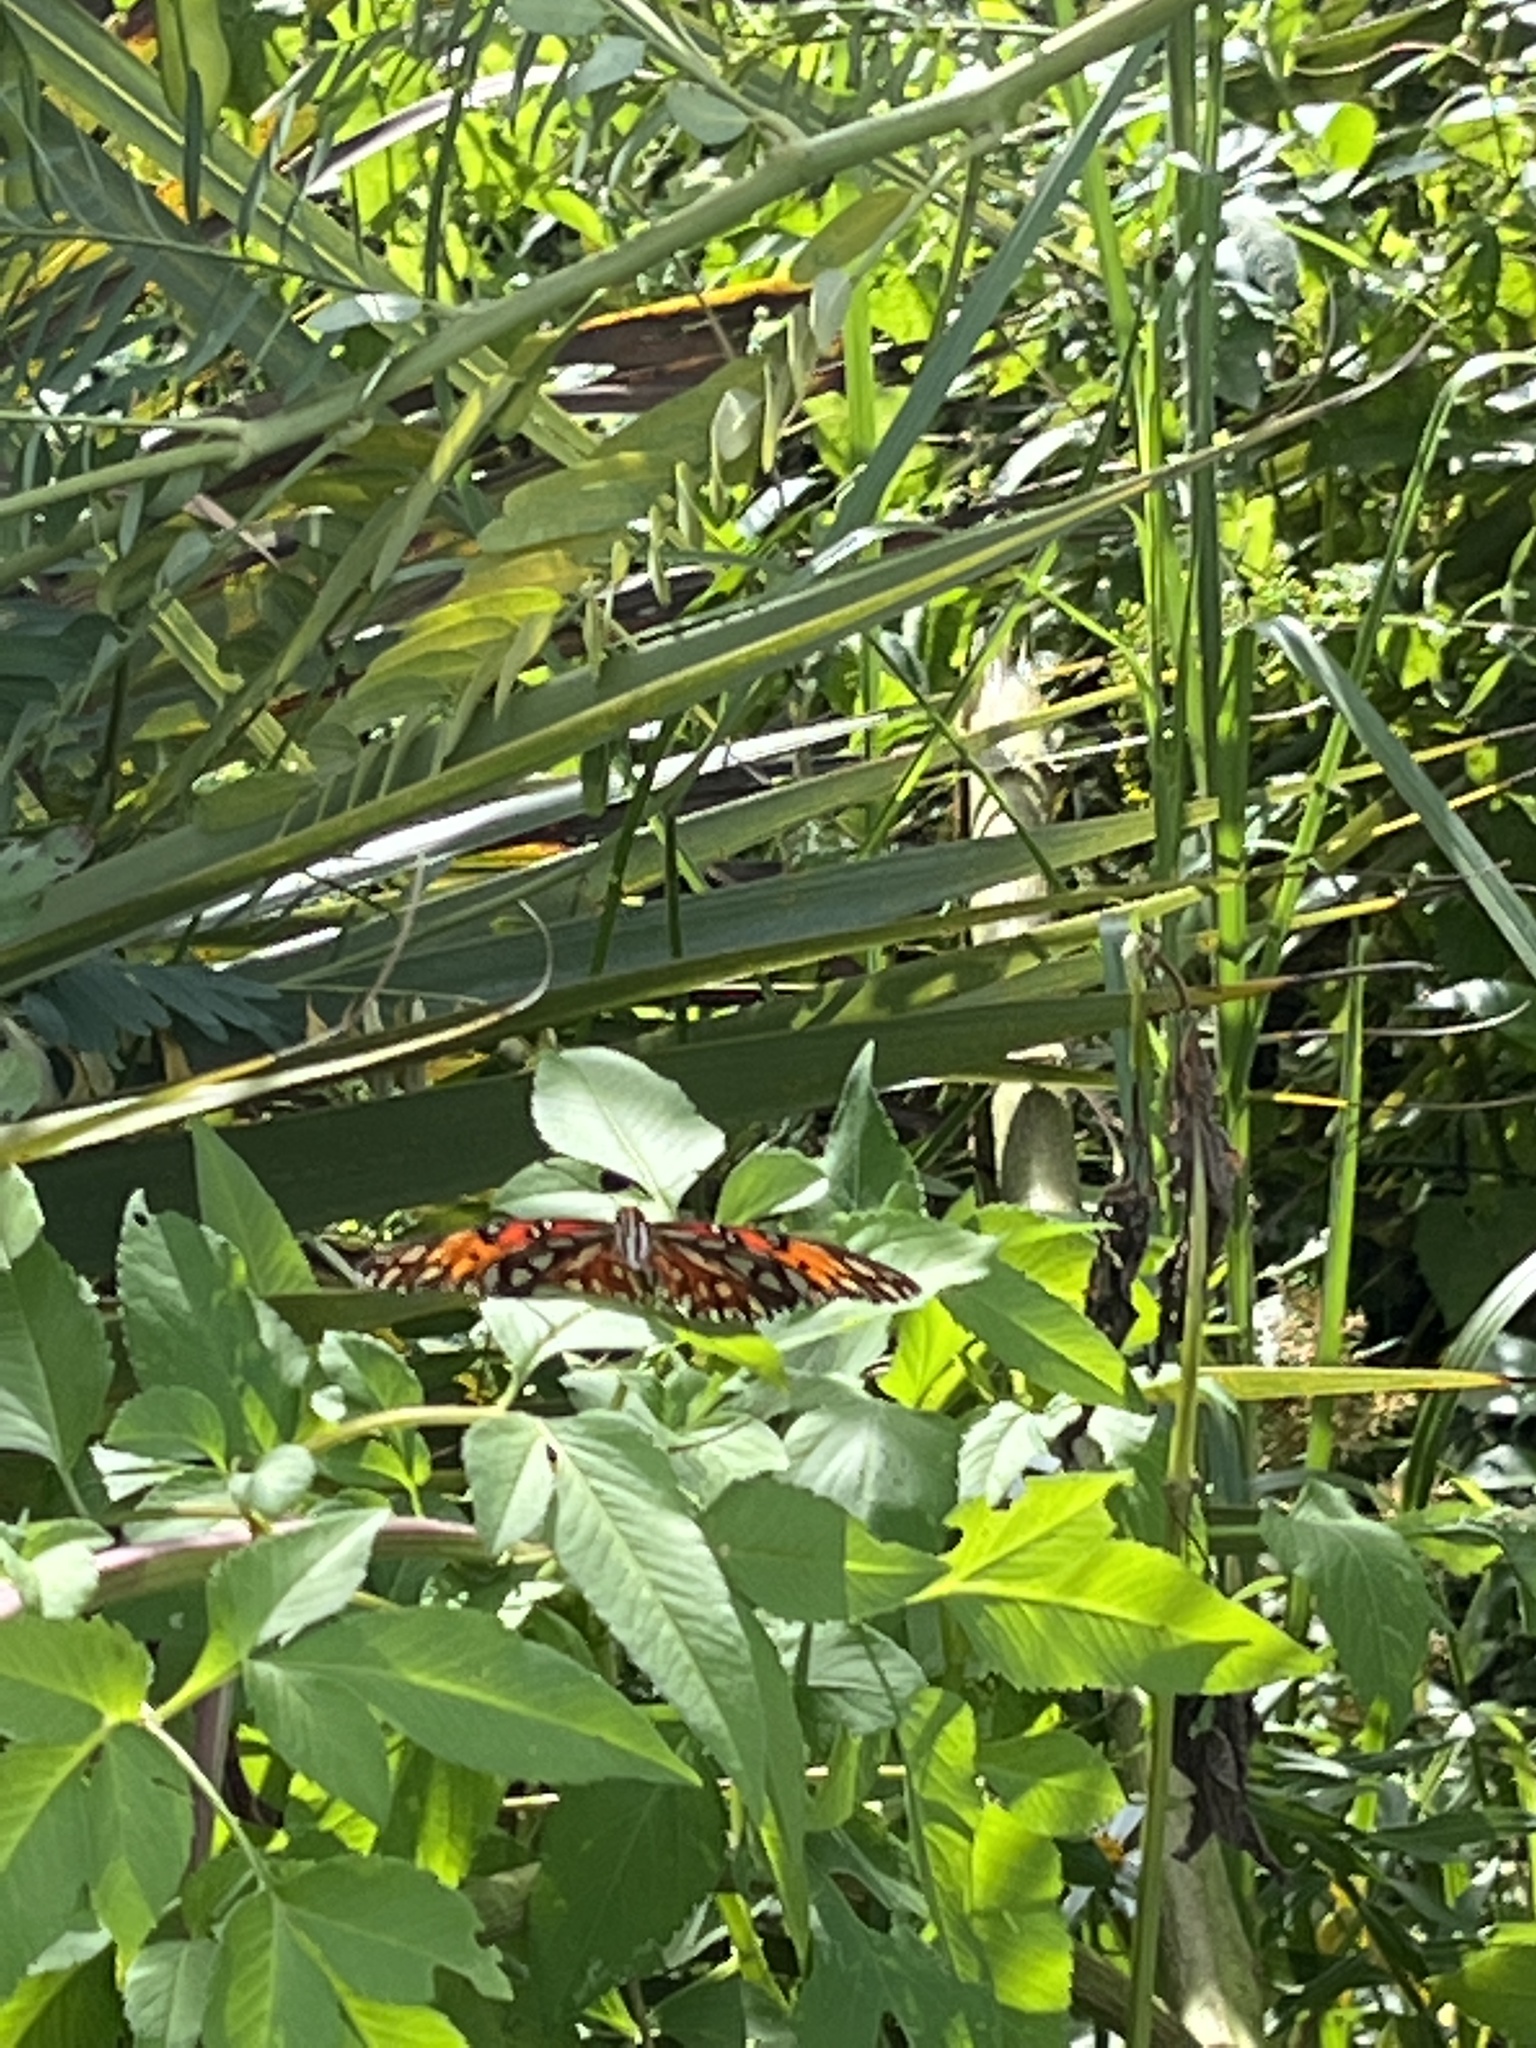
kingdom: Animalia
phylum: Arthropoda
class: Insecta
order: Lepidoptera
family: Nymphalidae
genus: Dione
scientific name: Dione vanillae
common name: Gulf fritillary
